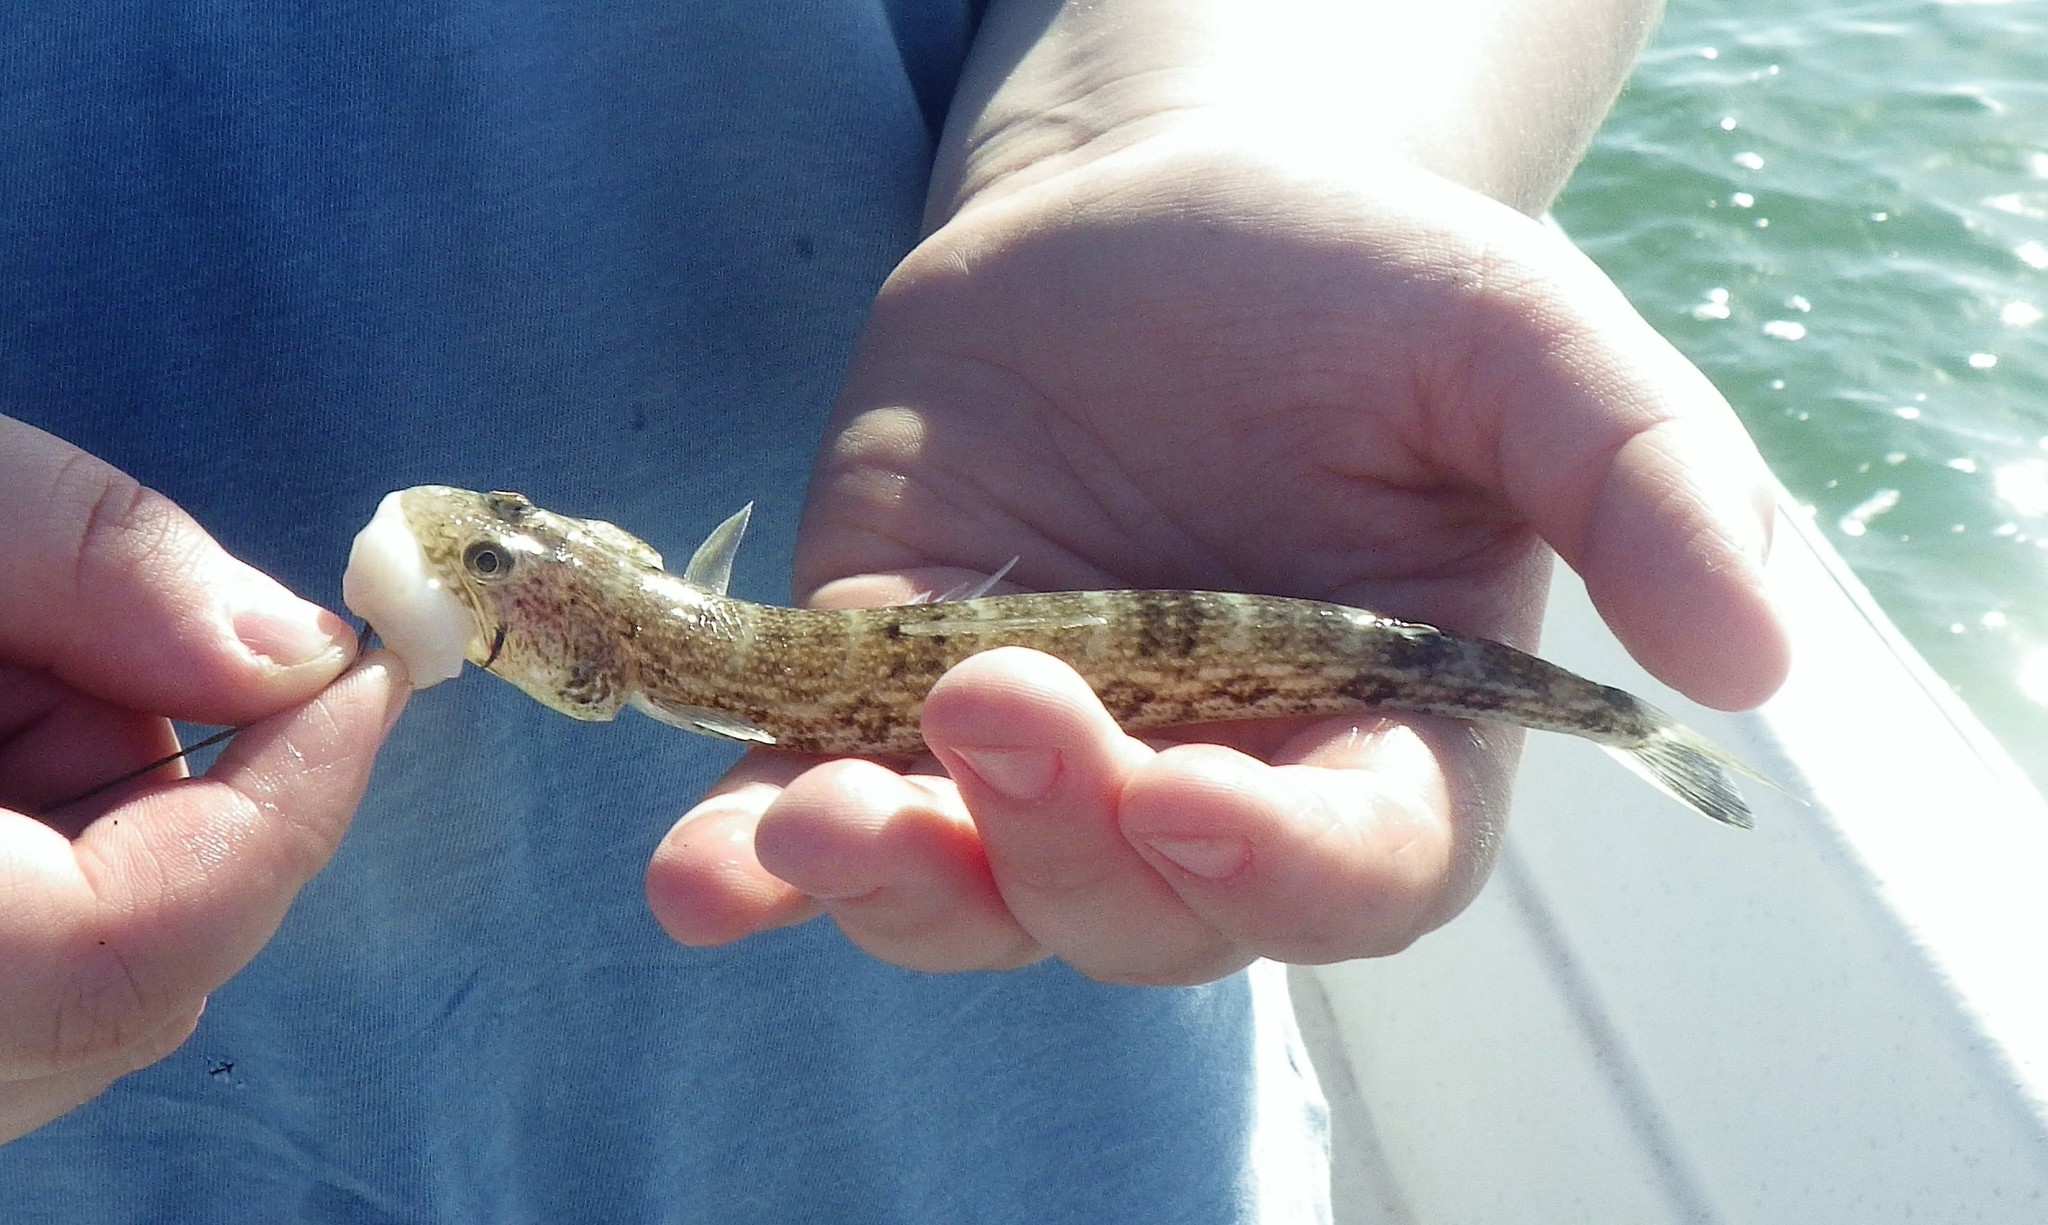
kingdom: Animalia
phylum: Chordata
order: Aulopiformes
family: Synodontidae
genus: Synodus
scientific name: Synodus foetens
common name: Inshore lizardfish
